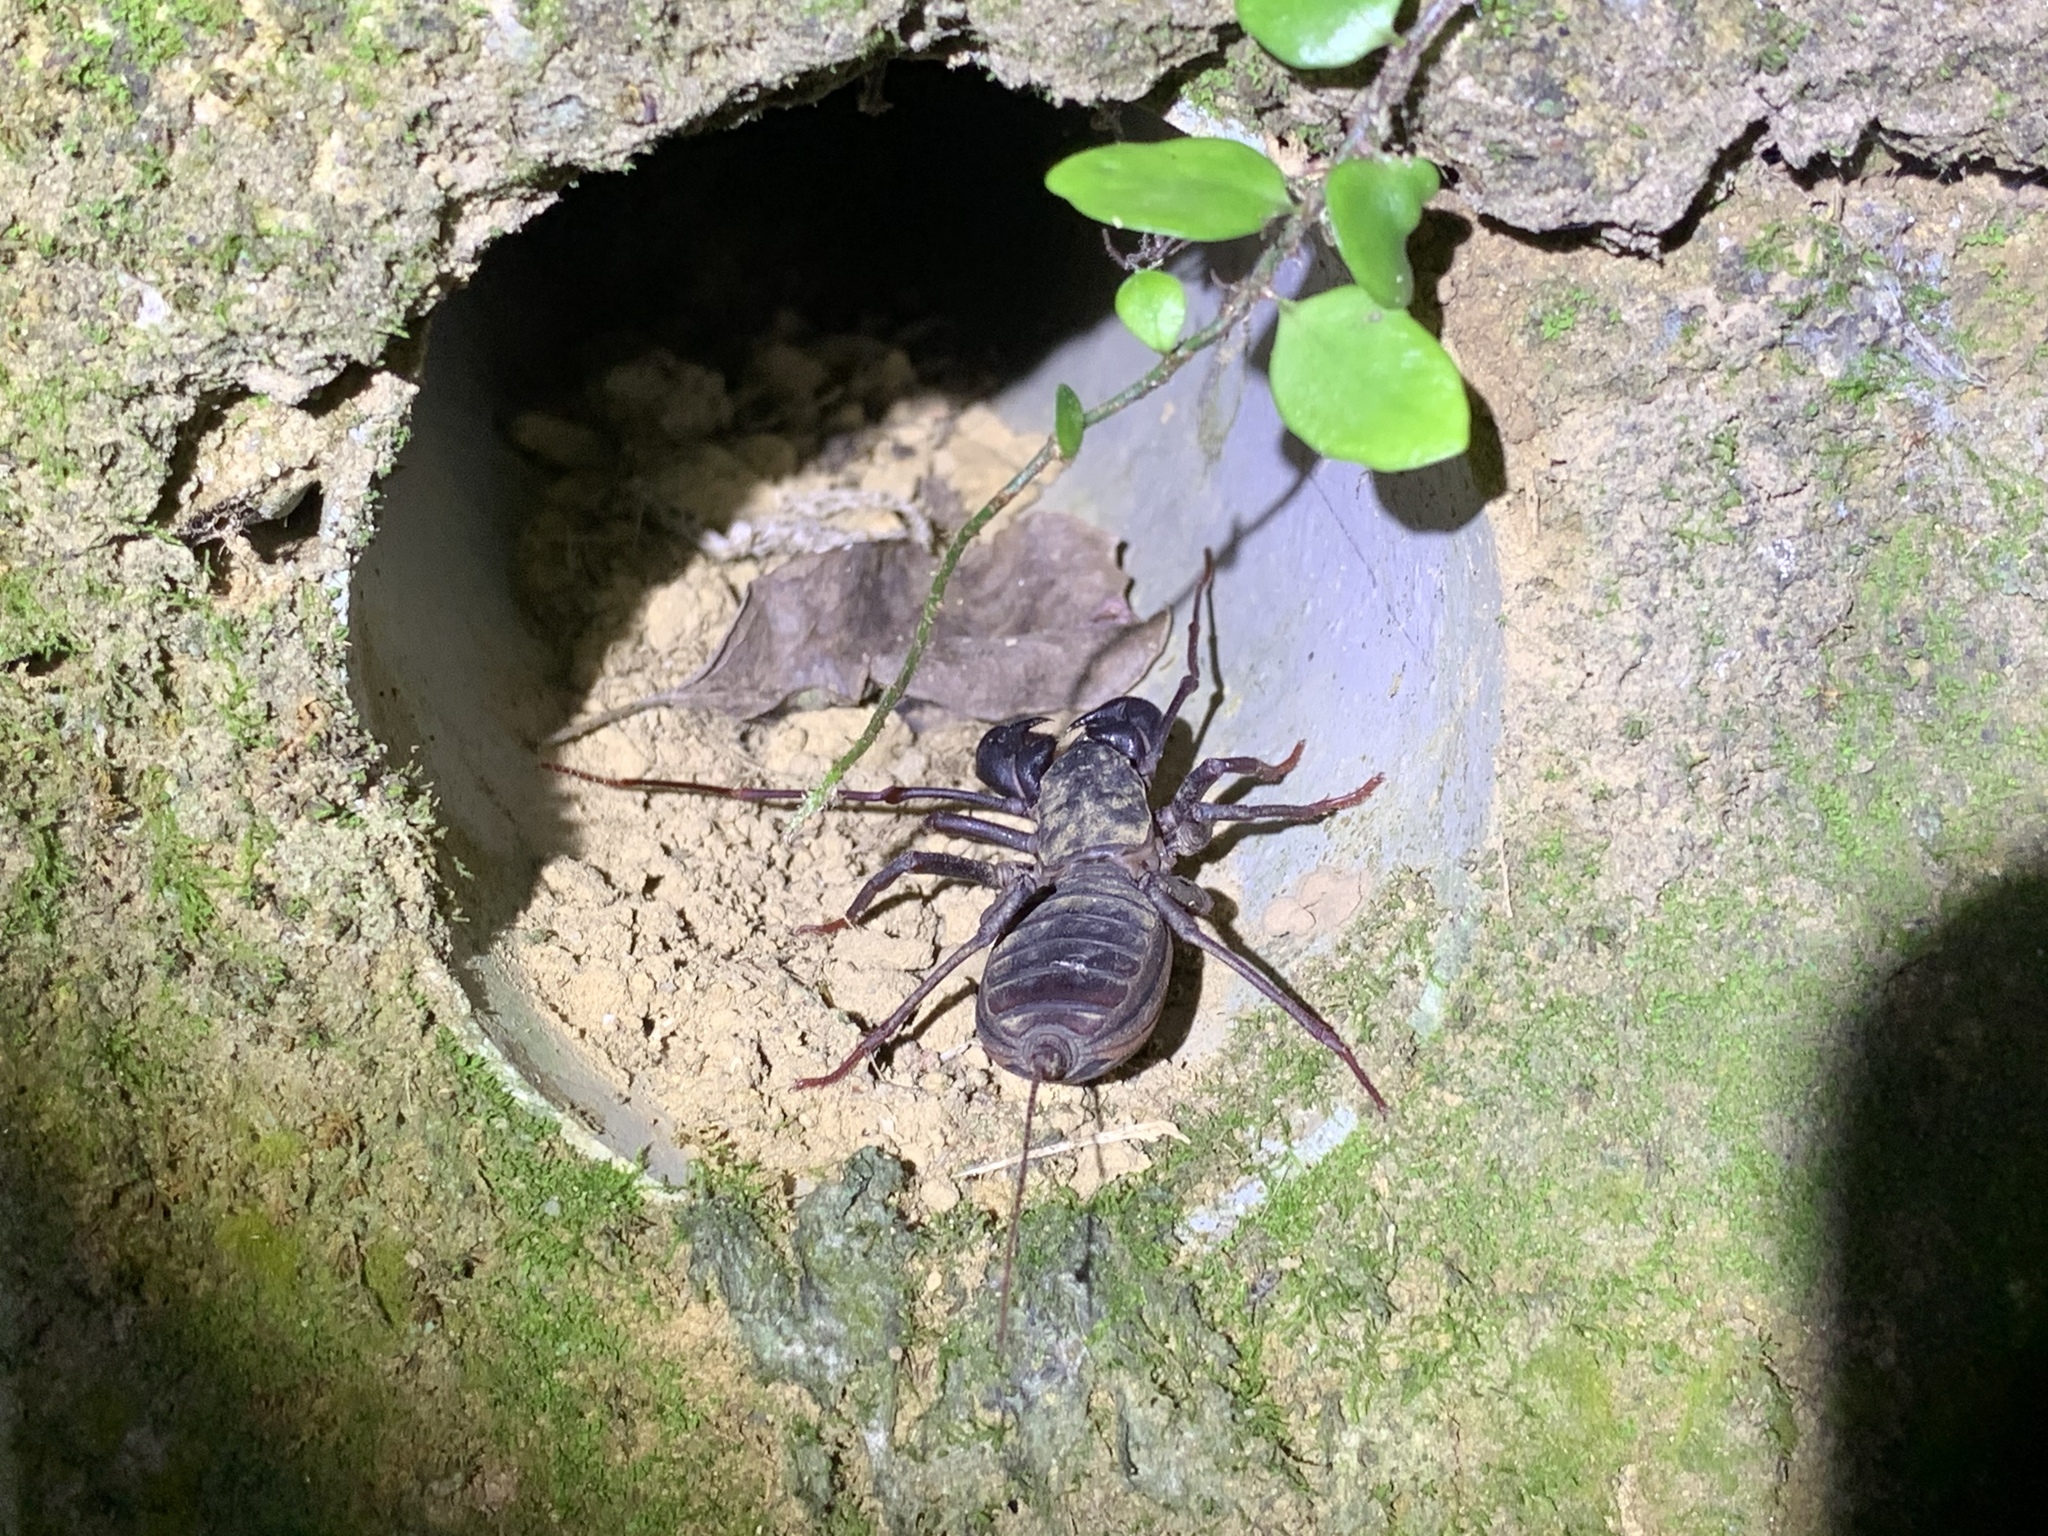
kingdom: Animalia
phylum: Arthropoda
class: Arachnida
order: Uropygi
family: Thelyphonidae
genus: Typopeltis
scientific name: Typopeltis crucifer
